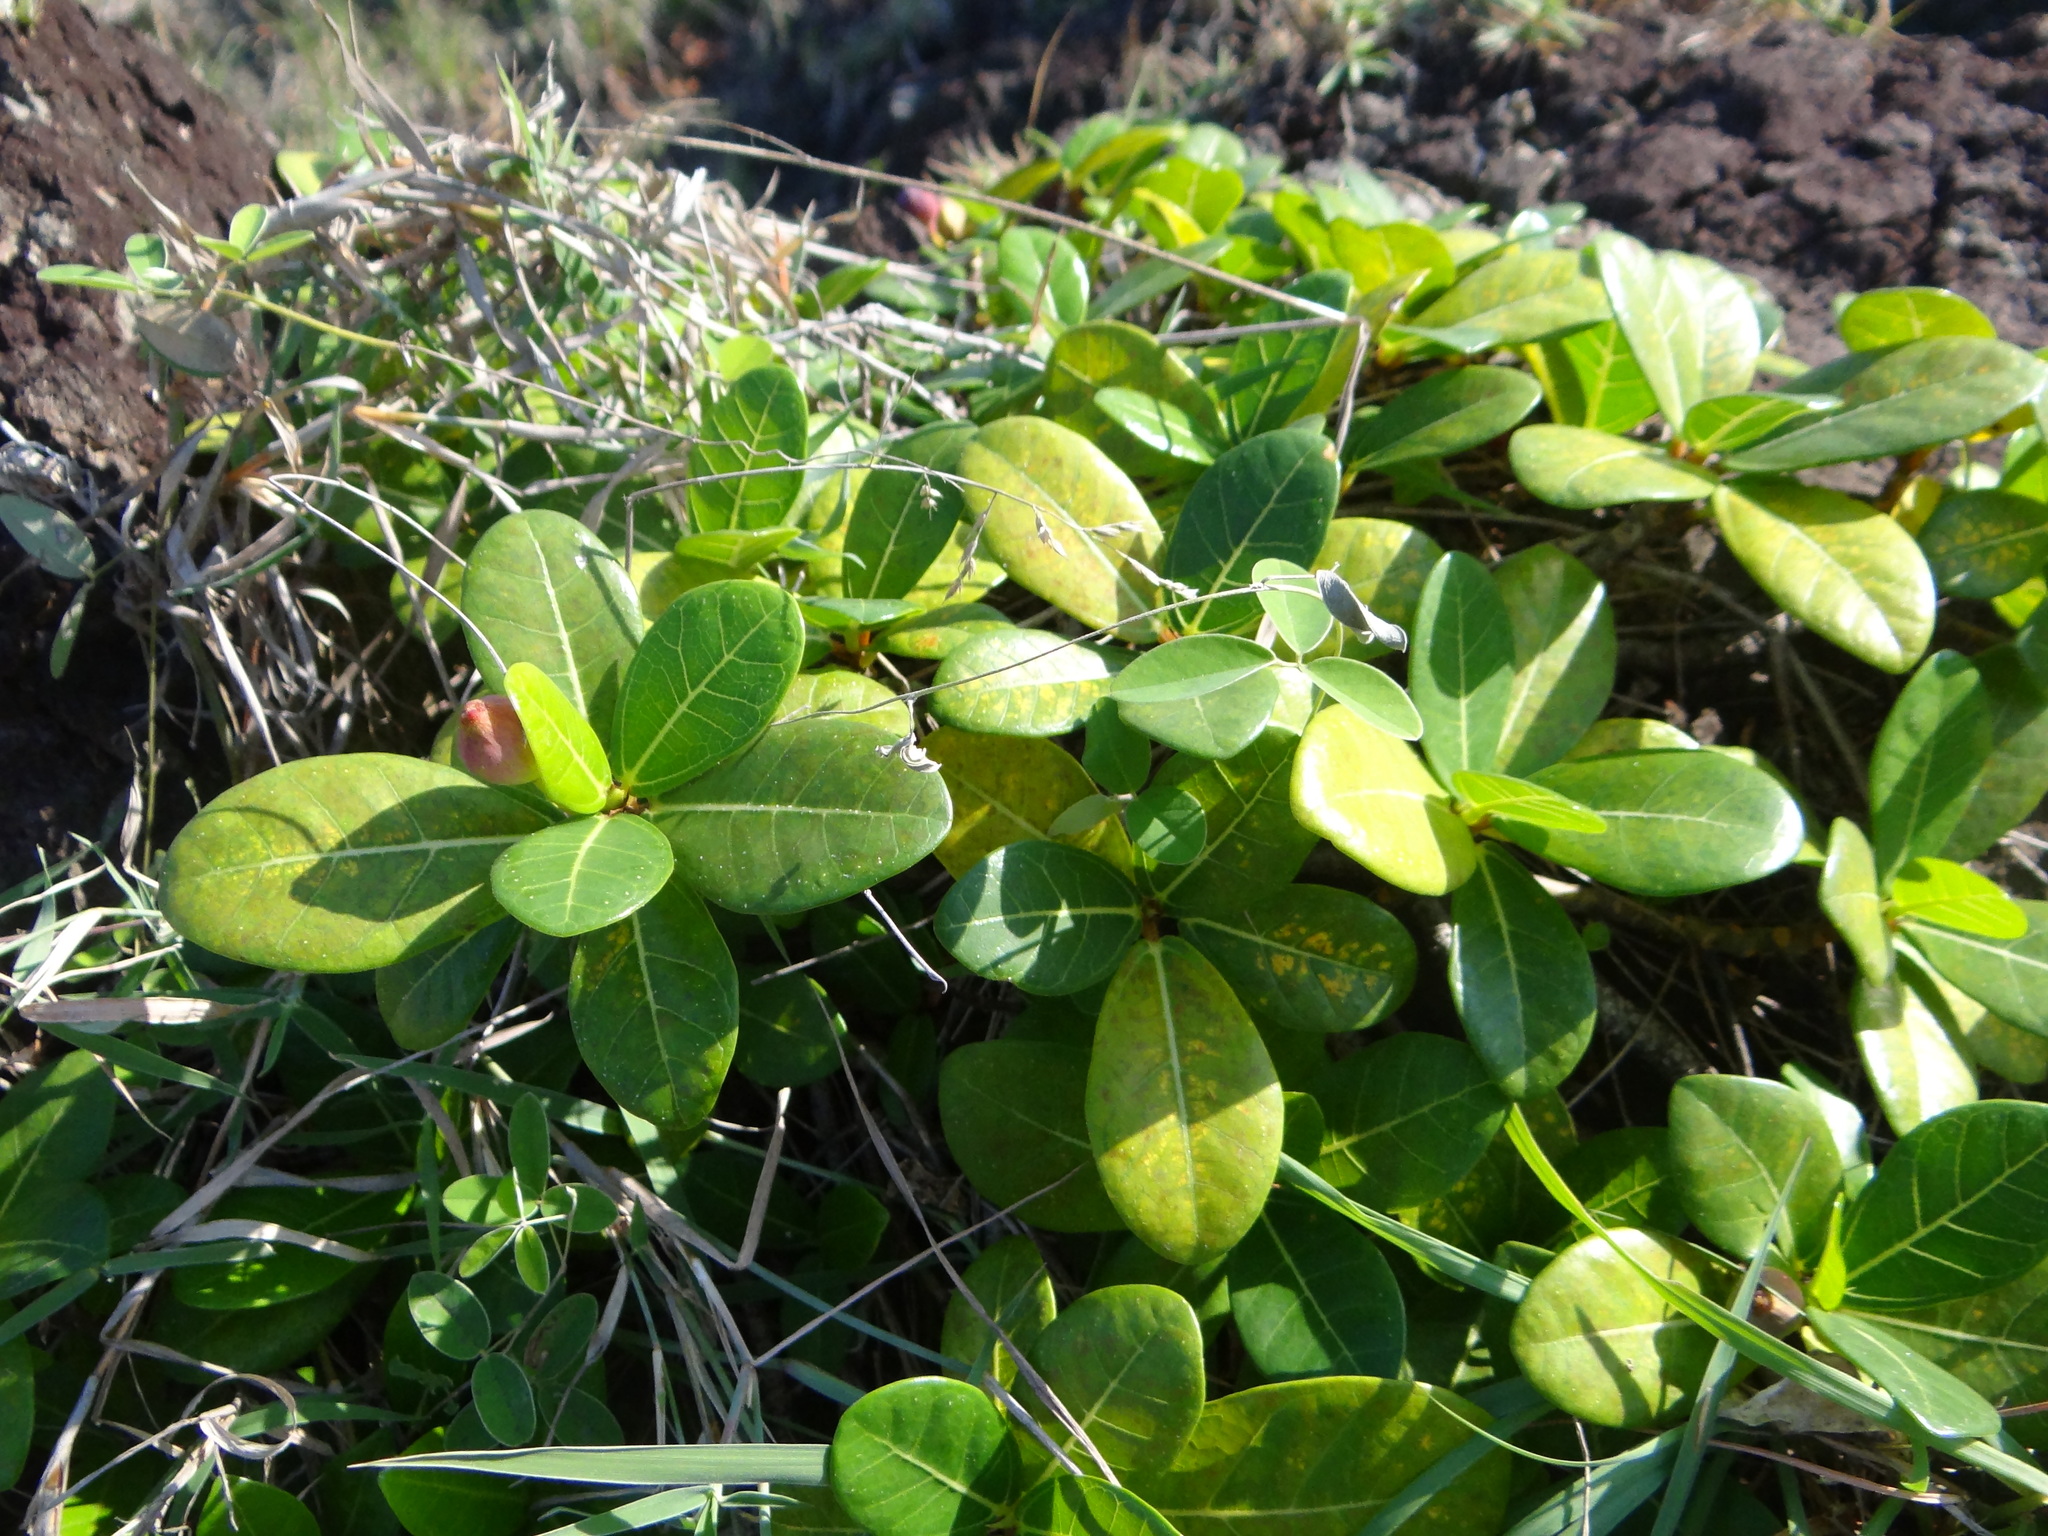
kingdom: Plantae
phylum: Tracheophyta
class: Magnoliopsida
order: Rosales
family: Moraceae
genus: Ficus
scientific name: Ficus pedunculosa
